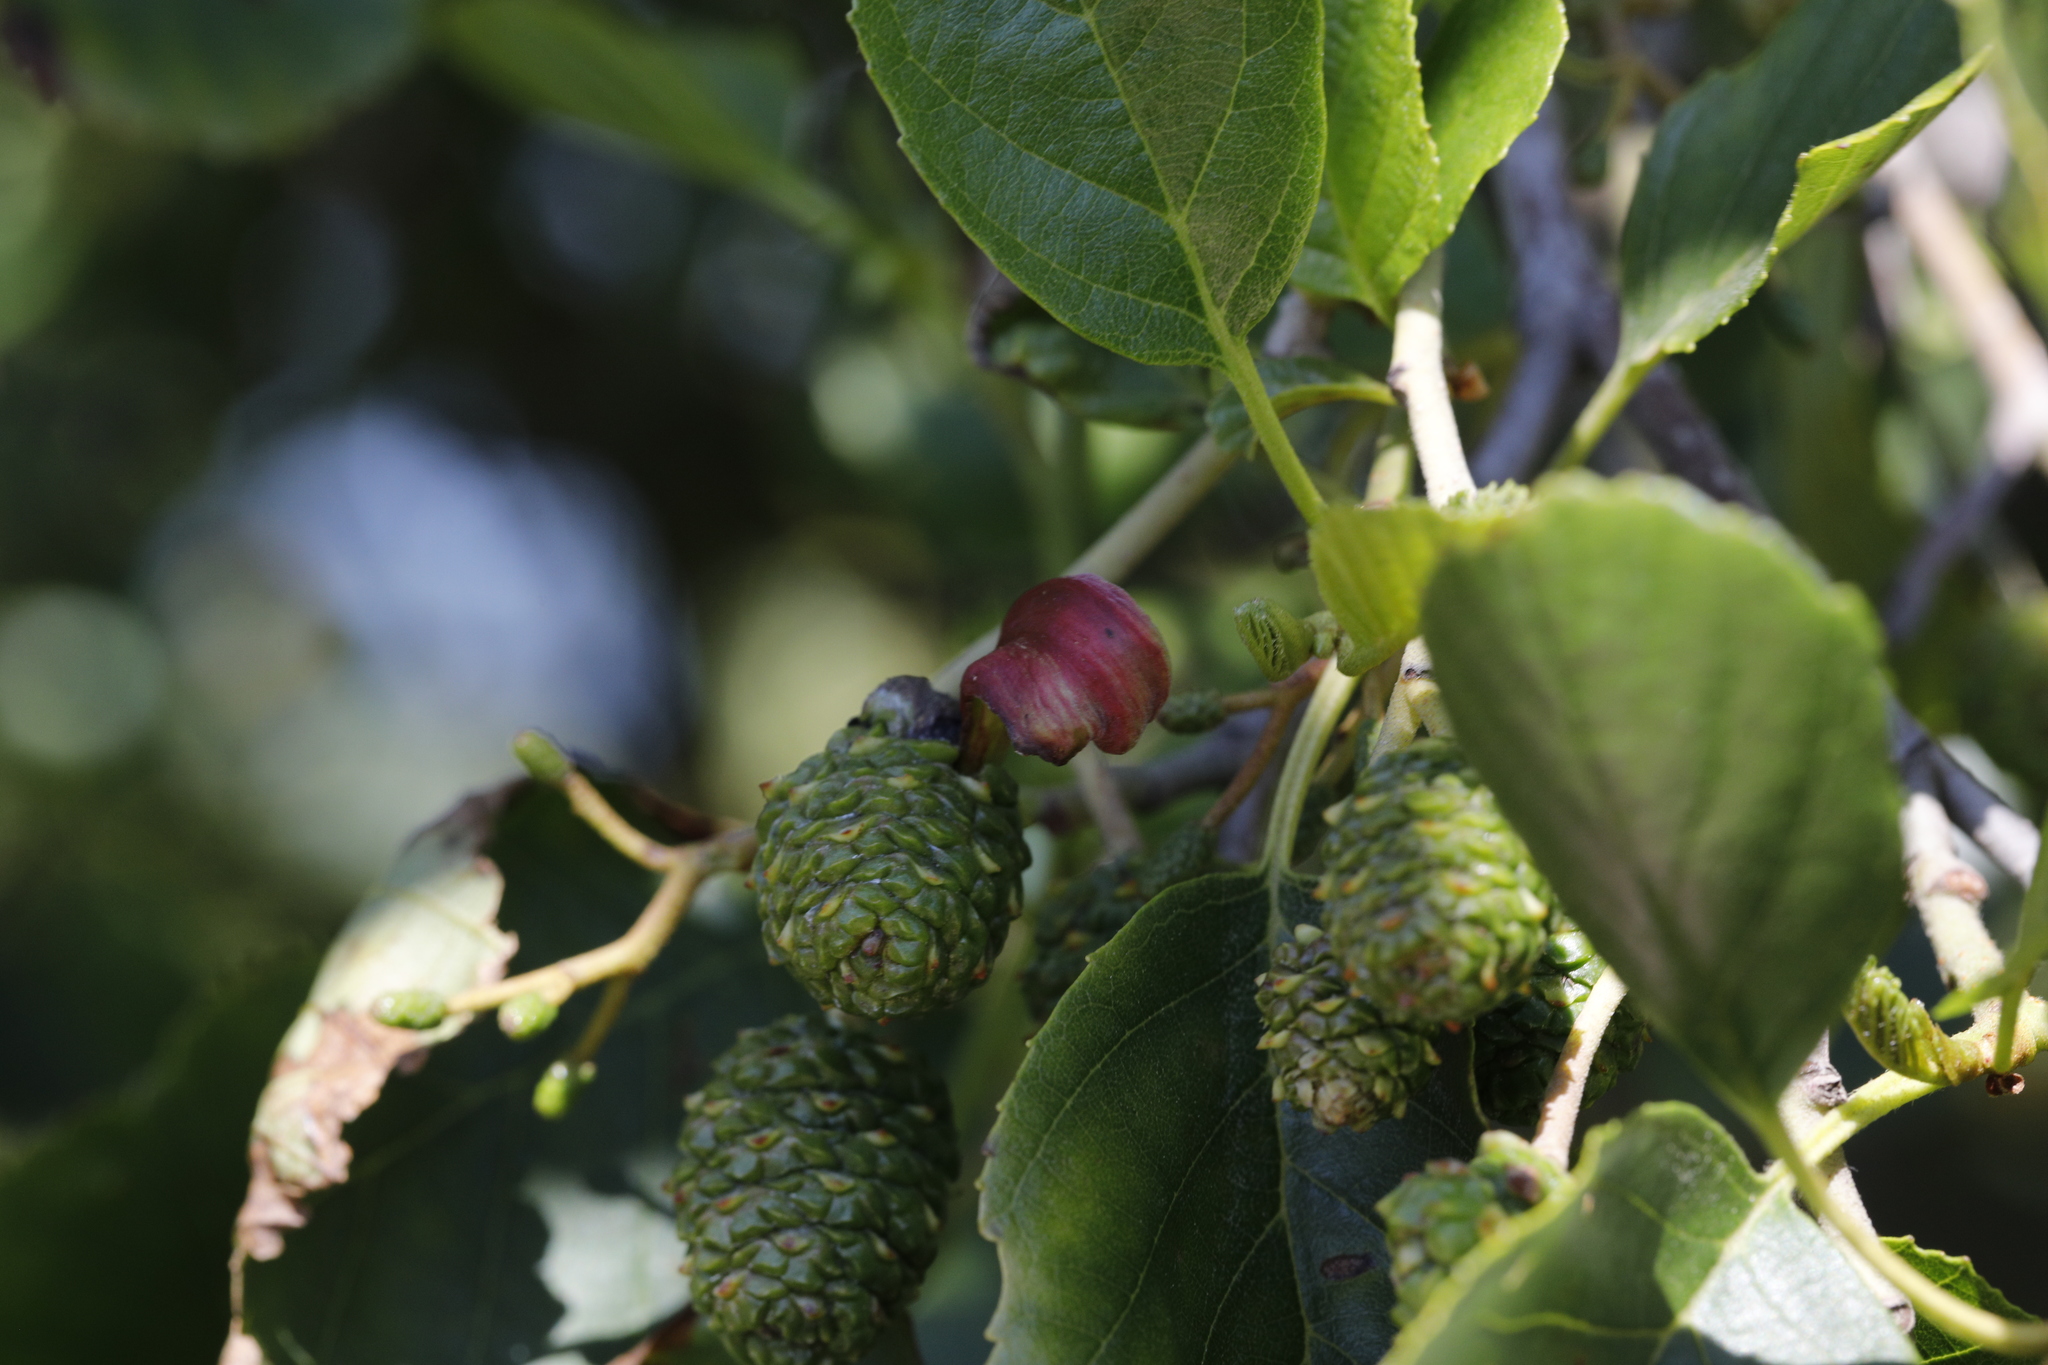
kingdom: Fungi
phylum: Ascomycota
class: Taphrinomycetes
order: Taphrinales
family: Taphrinaceae
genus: Taphrina
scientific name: Taphrina alni
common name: Alder tongue
